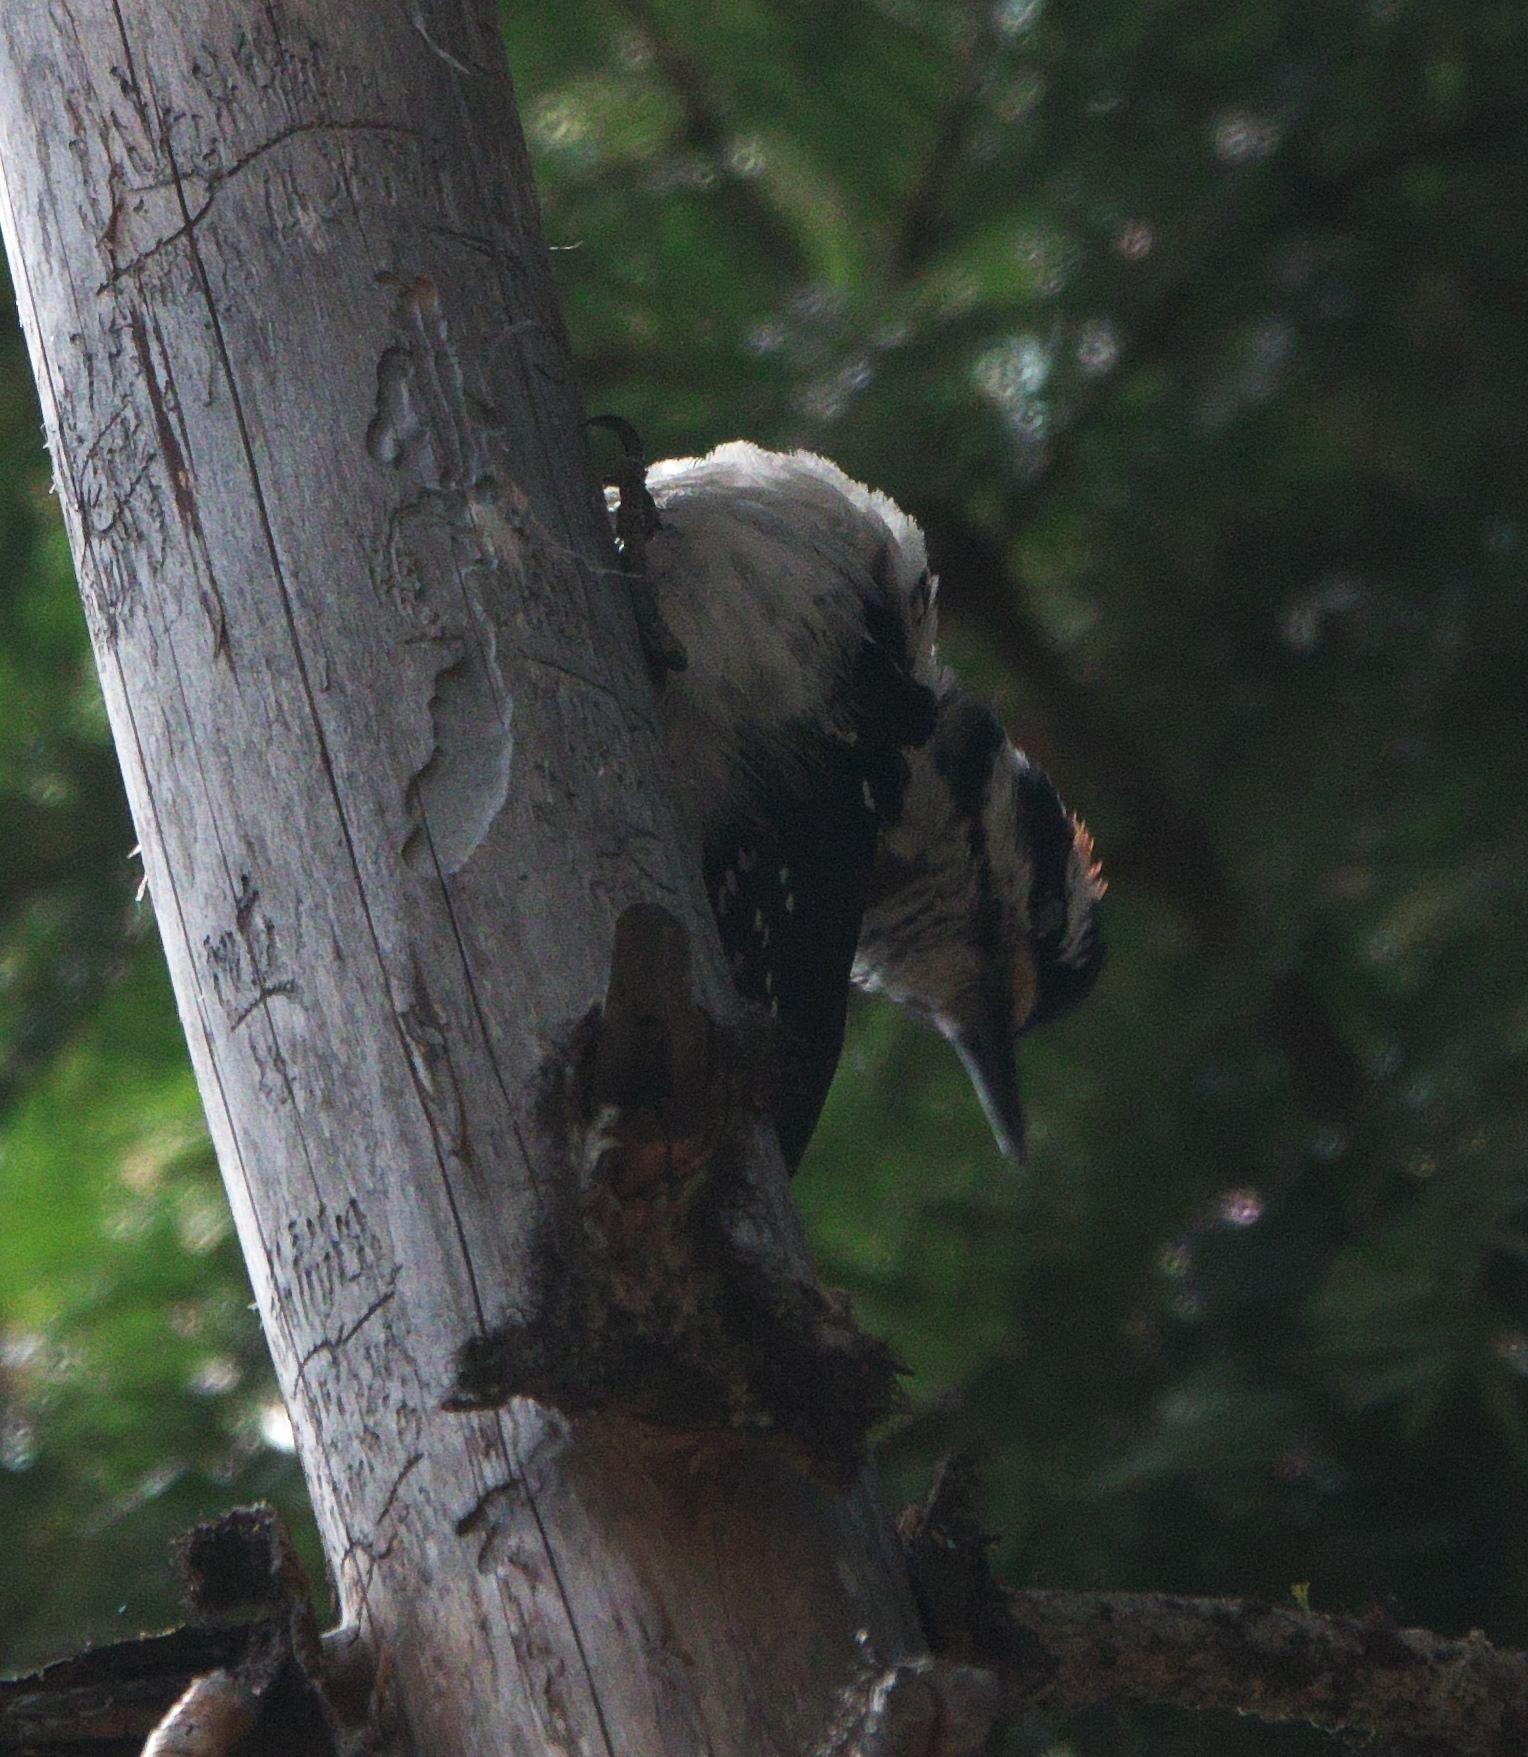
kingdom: Animalia
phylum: Chordata
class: Aves
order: Piciformes
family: Picidae
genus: Leuconotopicus
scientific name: Leuconotopicus villosus
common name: Hairy woodpecker
